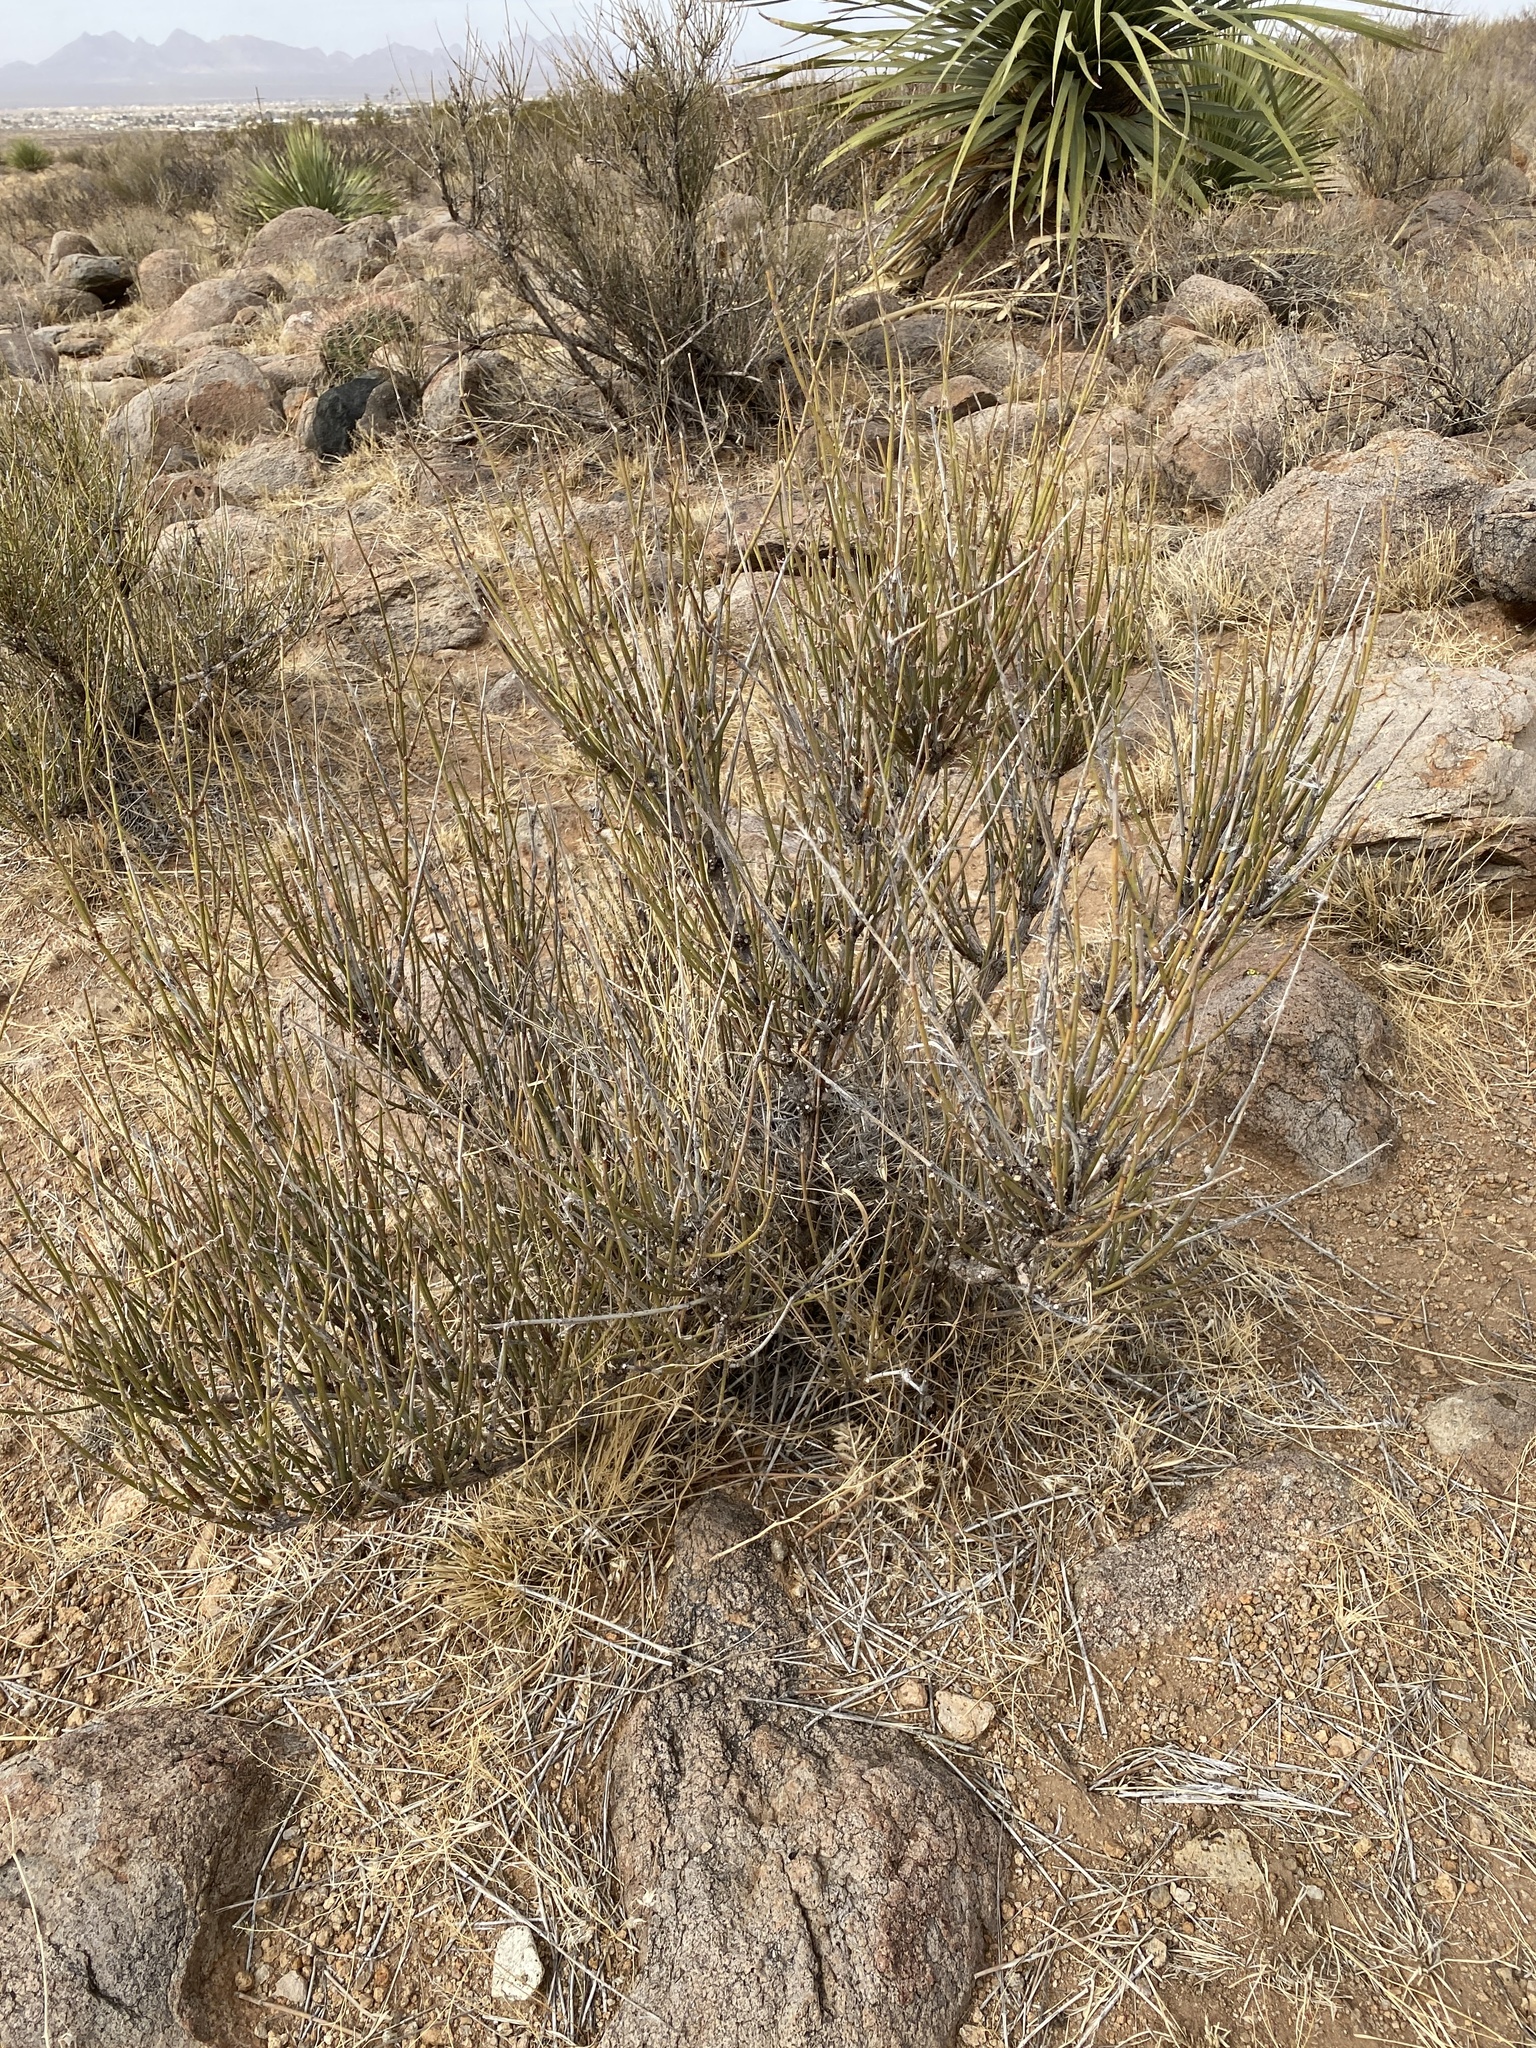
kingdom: Plantae
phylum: Tracheophyta
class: Gnetopsida
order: Ephedrales
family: Ephedraceae
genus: Ephedra
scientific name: Ephedra trifurca
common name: Mexican-tea
